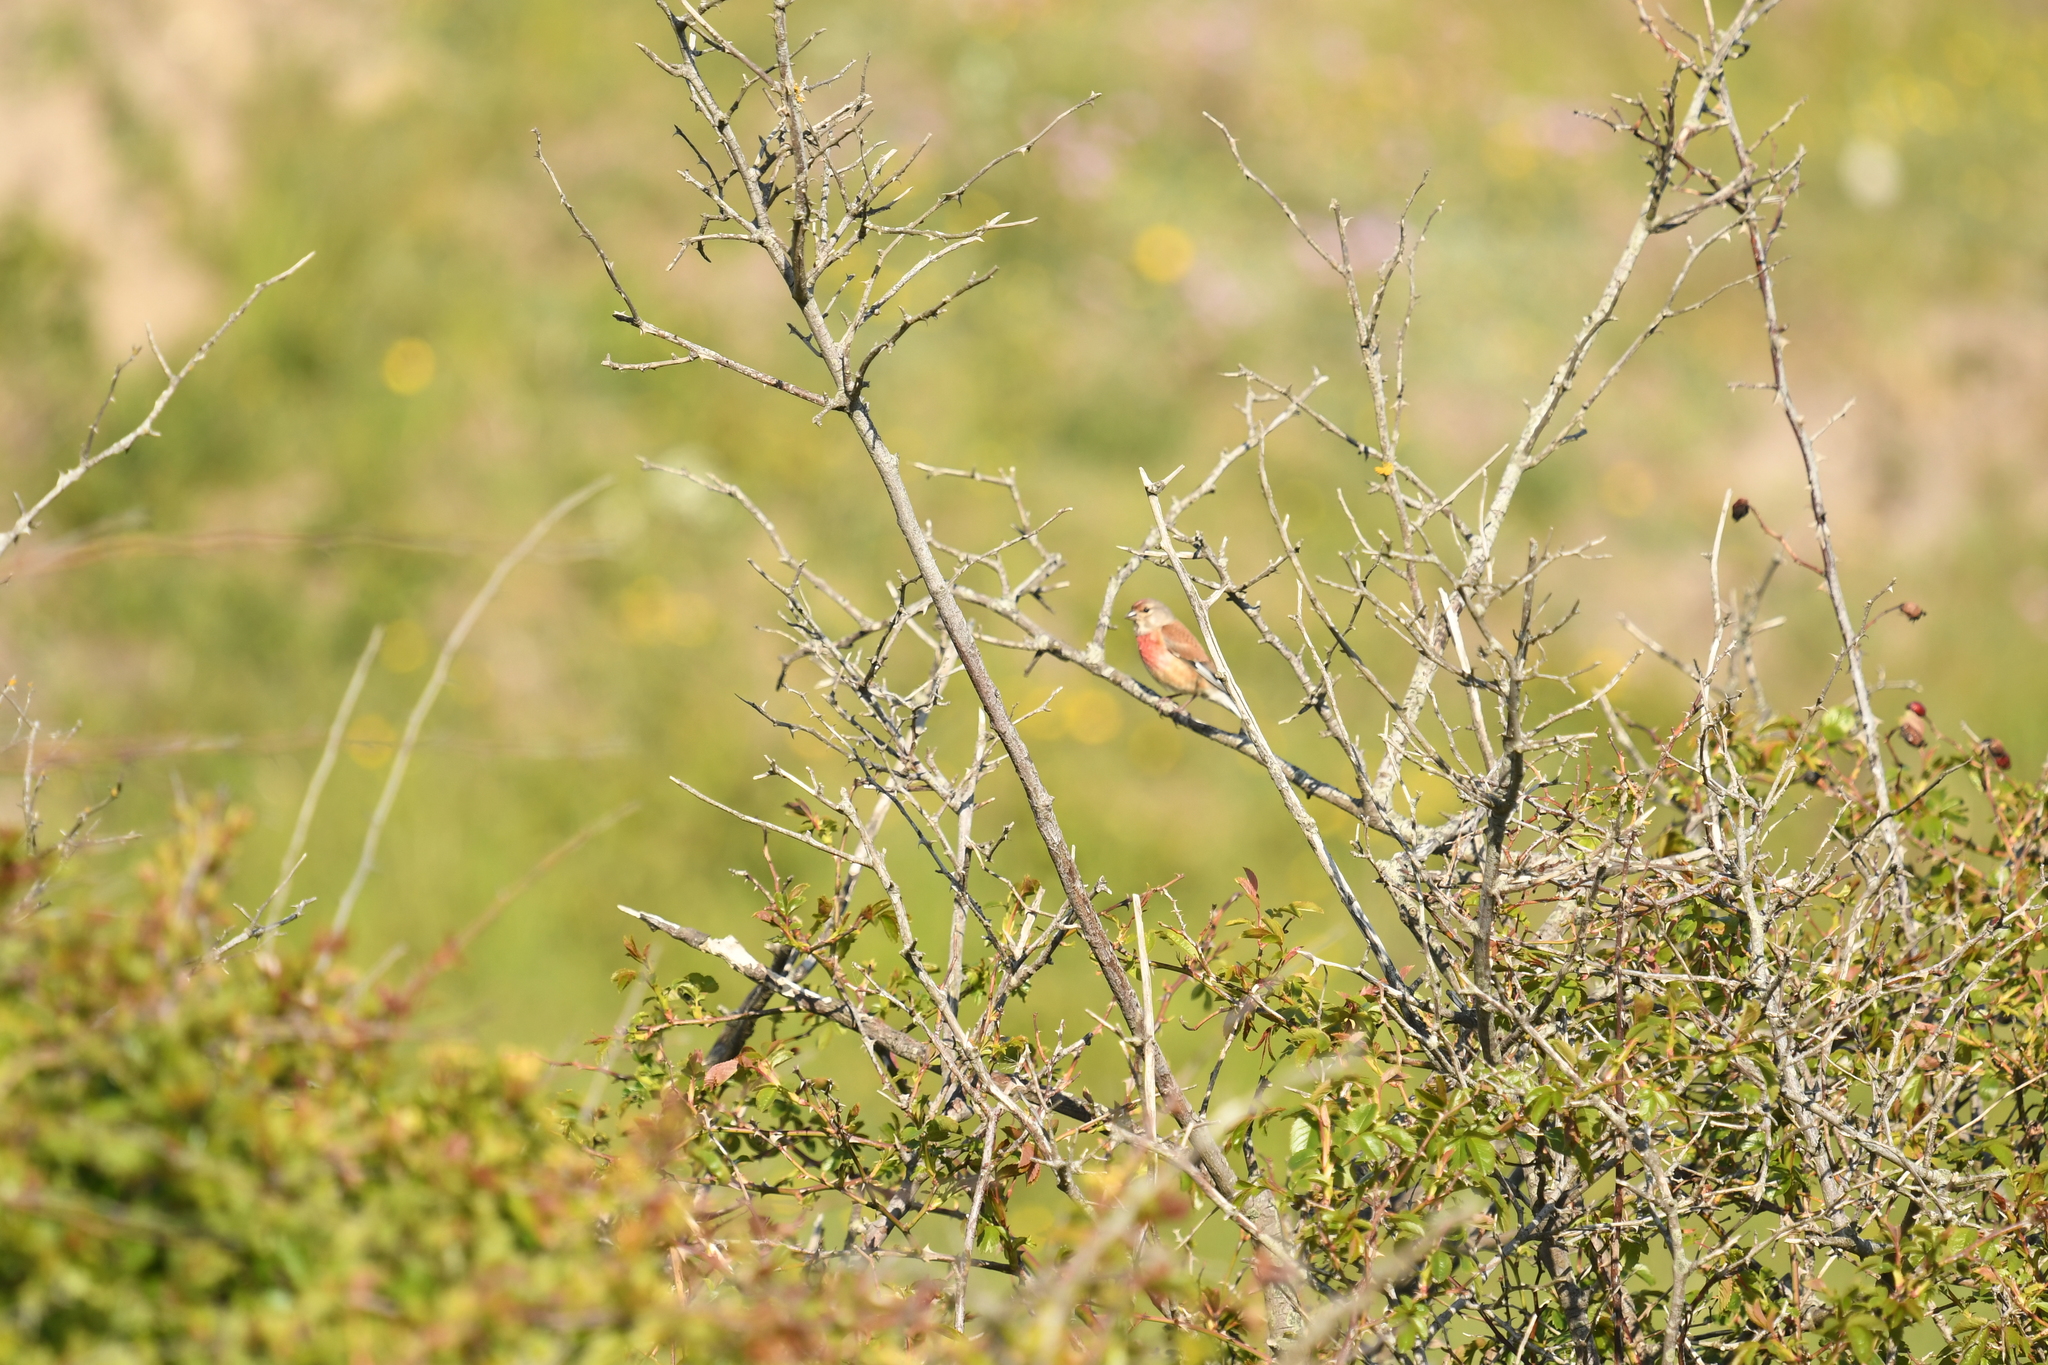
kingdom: Animalia
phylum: Chordata
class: Aves
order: Passeriformes
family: Fringillidae
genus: Linaria
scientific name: Linaria cannabina
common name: Common linnet
